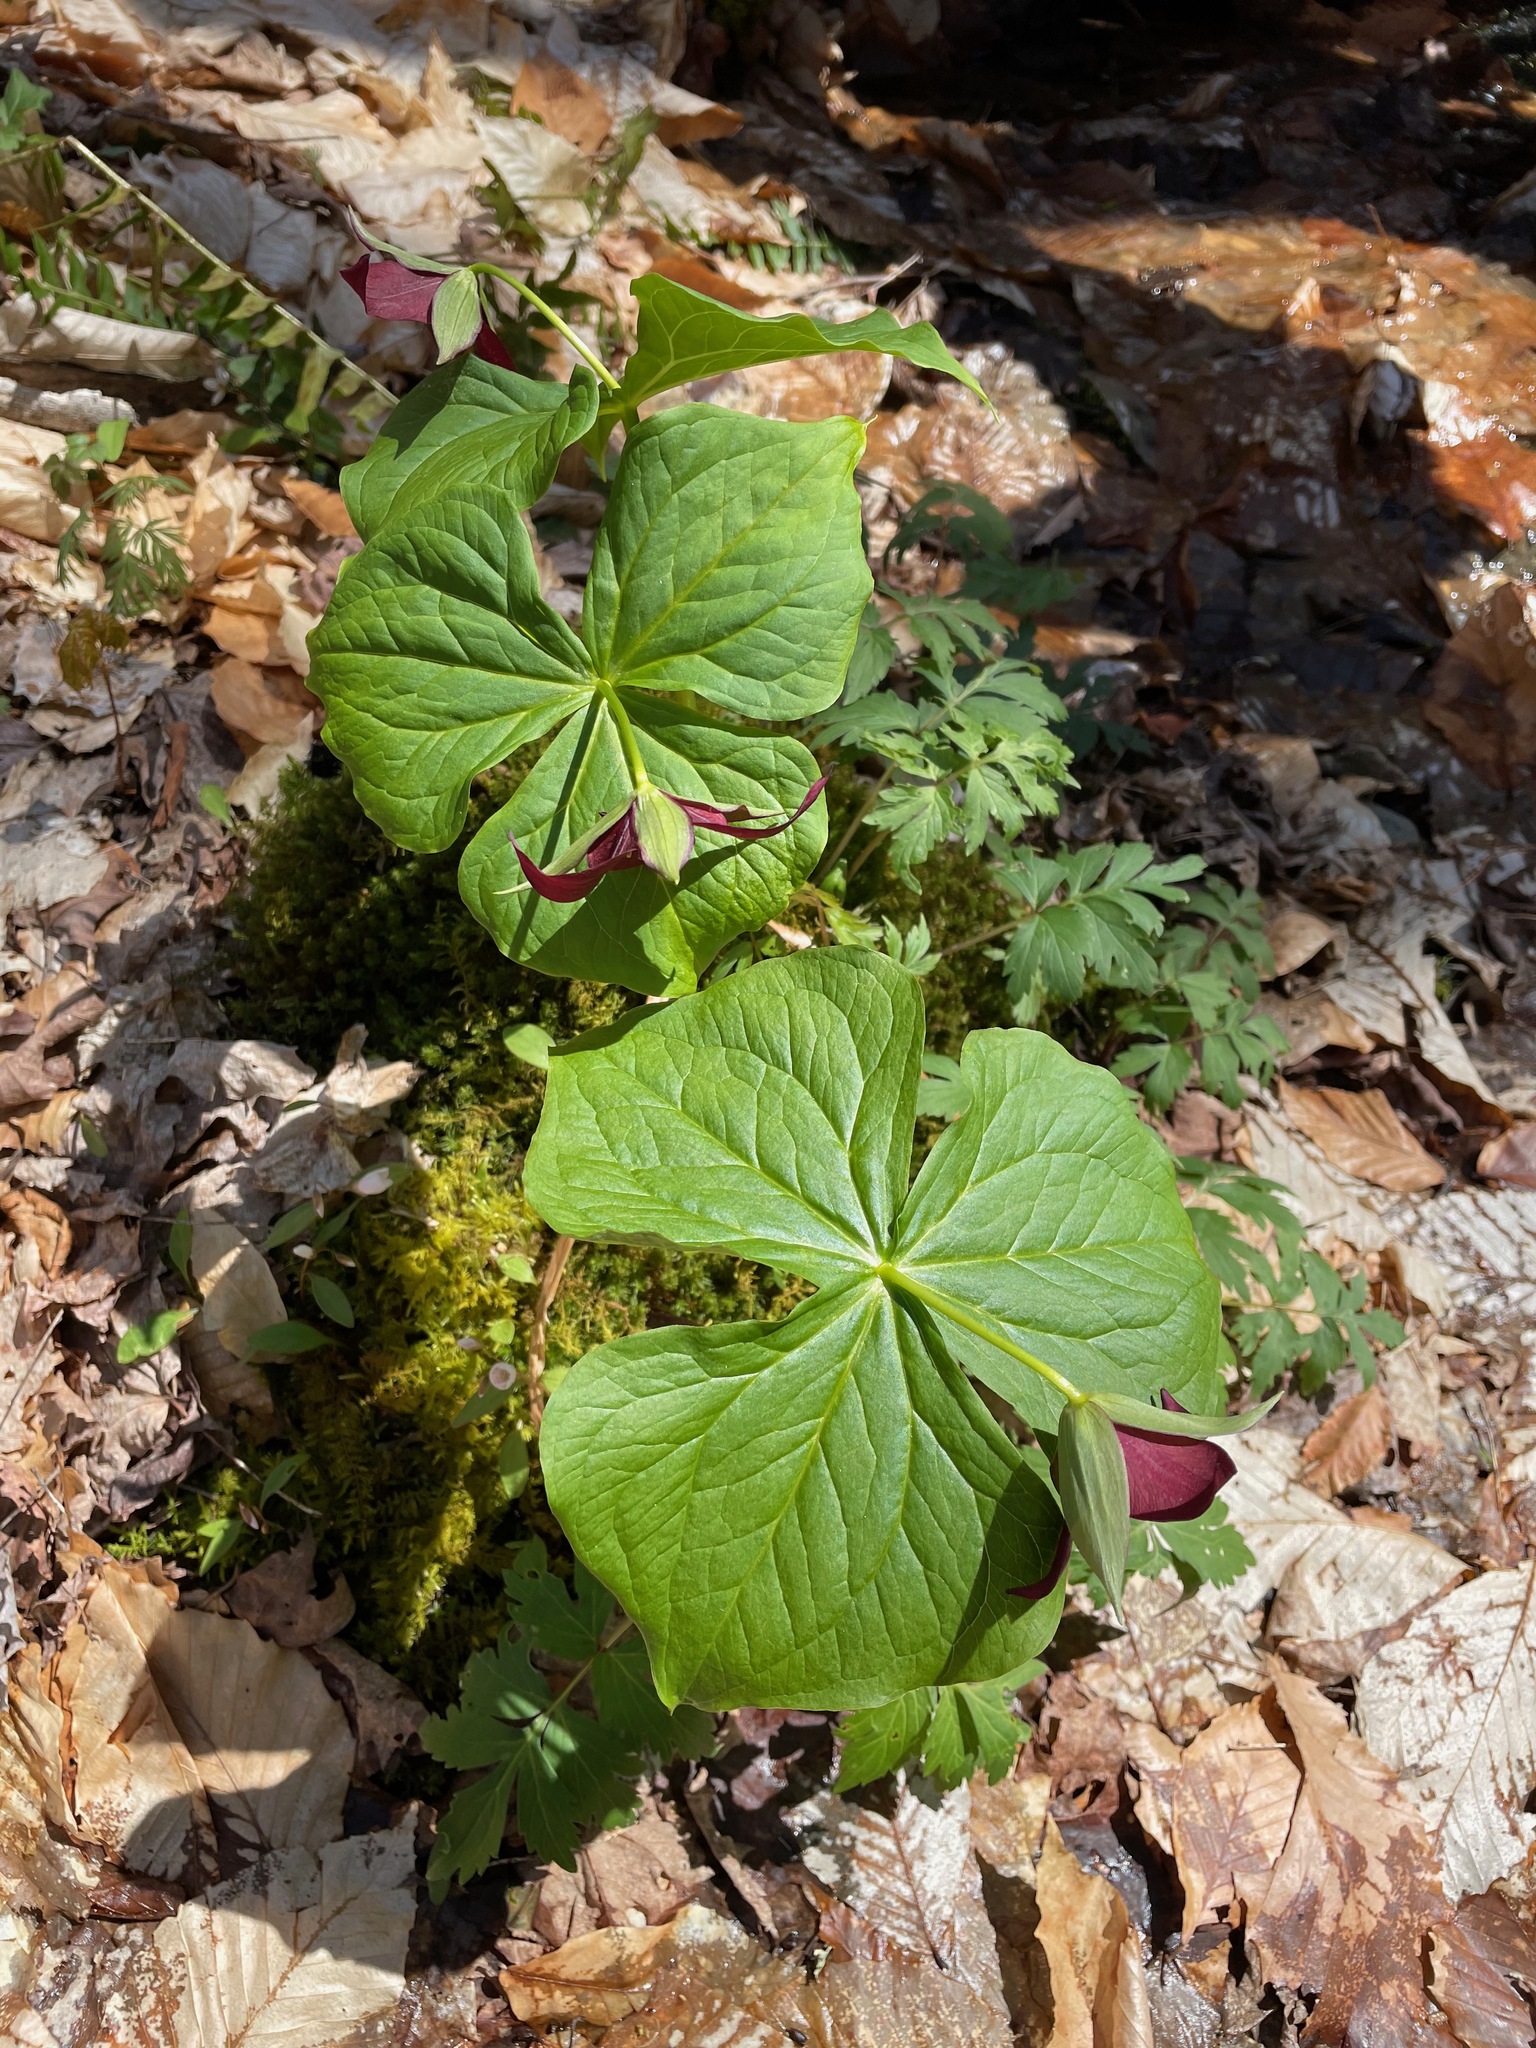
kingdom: Plantae
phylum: Tracheophyta
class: Liliopsida
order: Liliales
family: Melanthiaceae
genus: Trillium
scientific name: Trillium erectum
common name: Purple trillium
